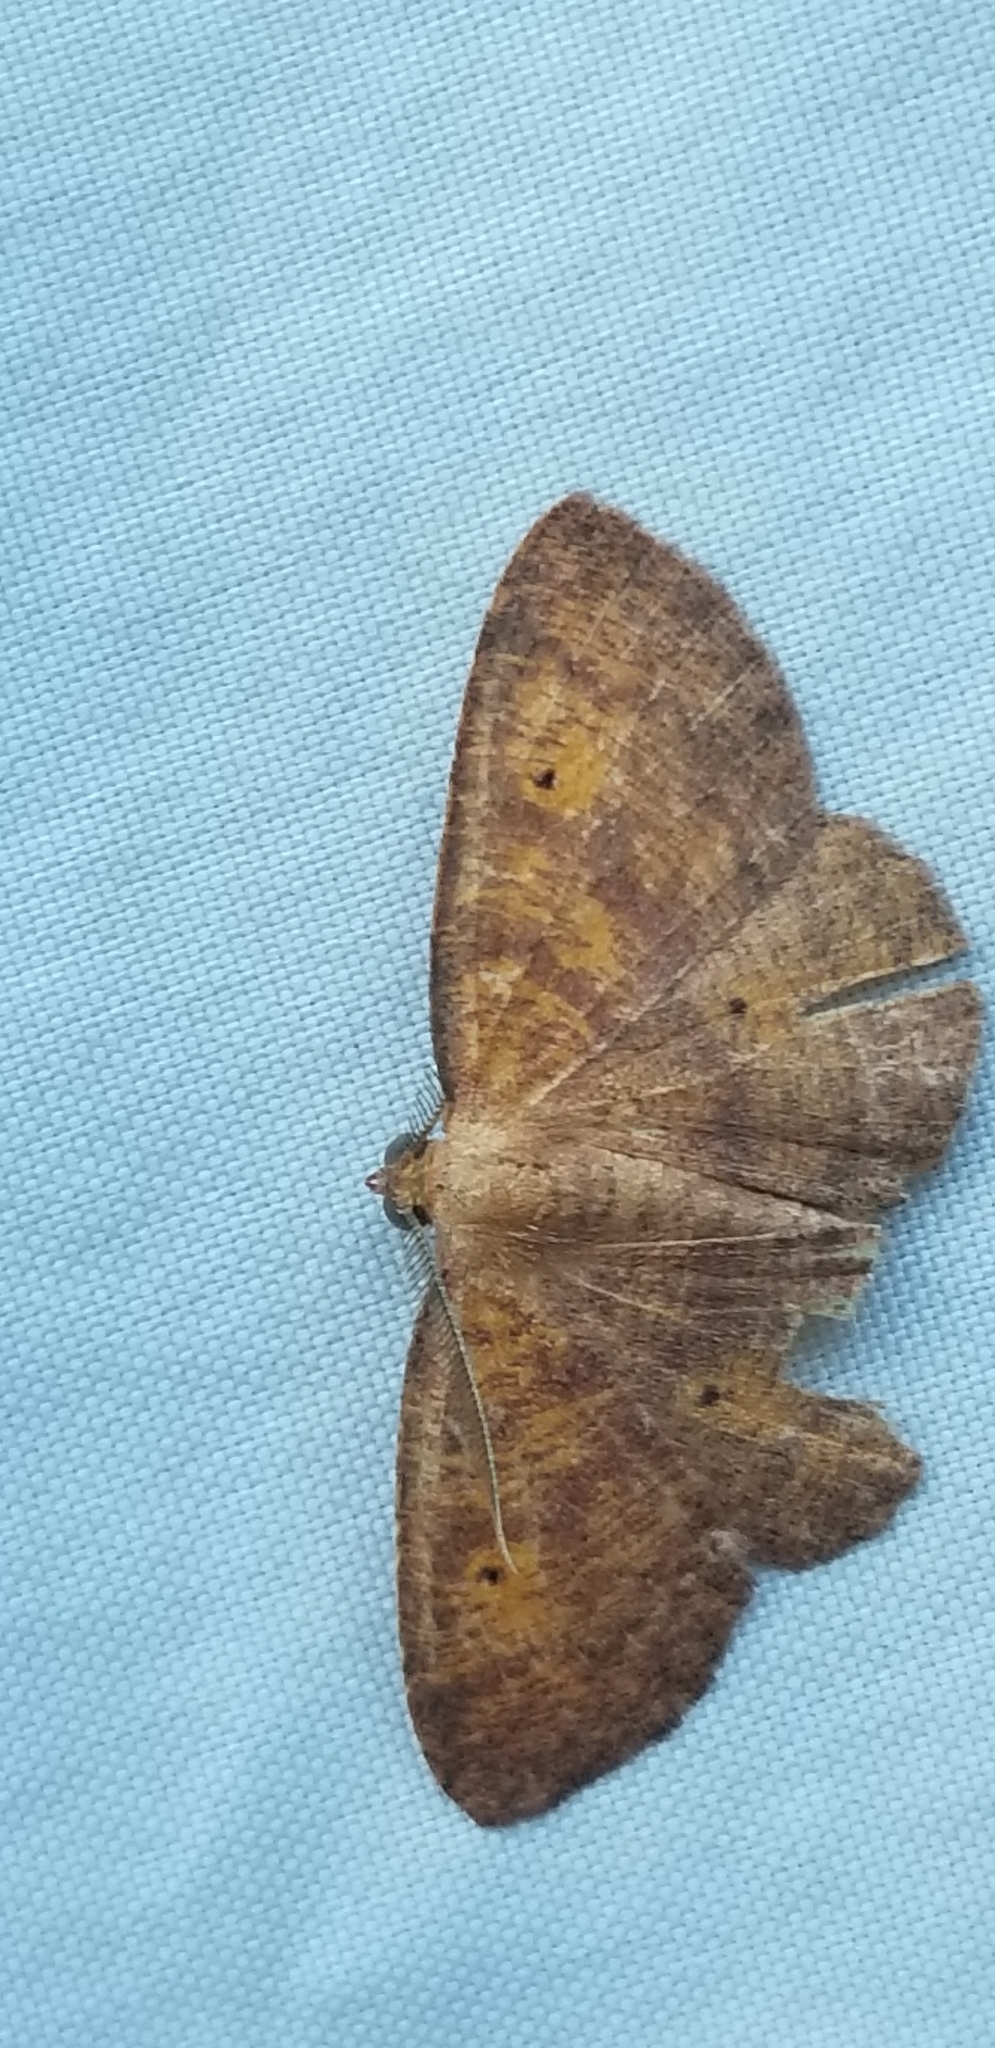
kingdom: Animalia
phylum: Arthropoda
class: Insecta
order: Lepidoptera
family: Geometridae
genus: Ilexia
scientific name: Ilexia intractata
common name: Black-dotted ruddy moth
